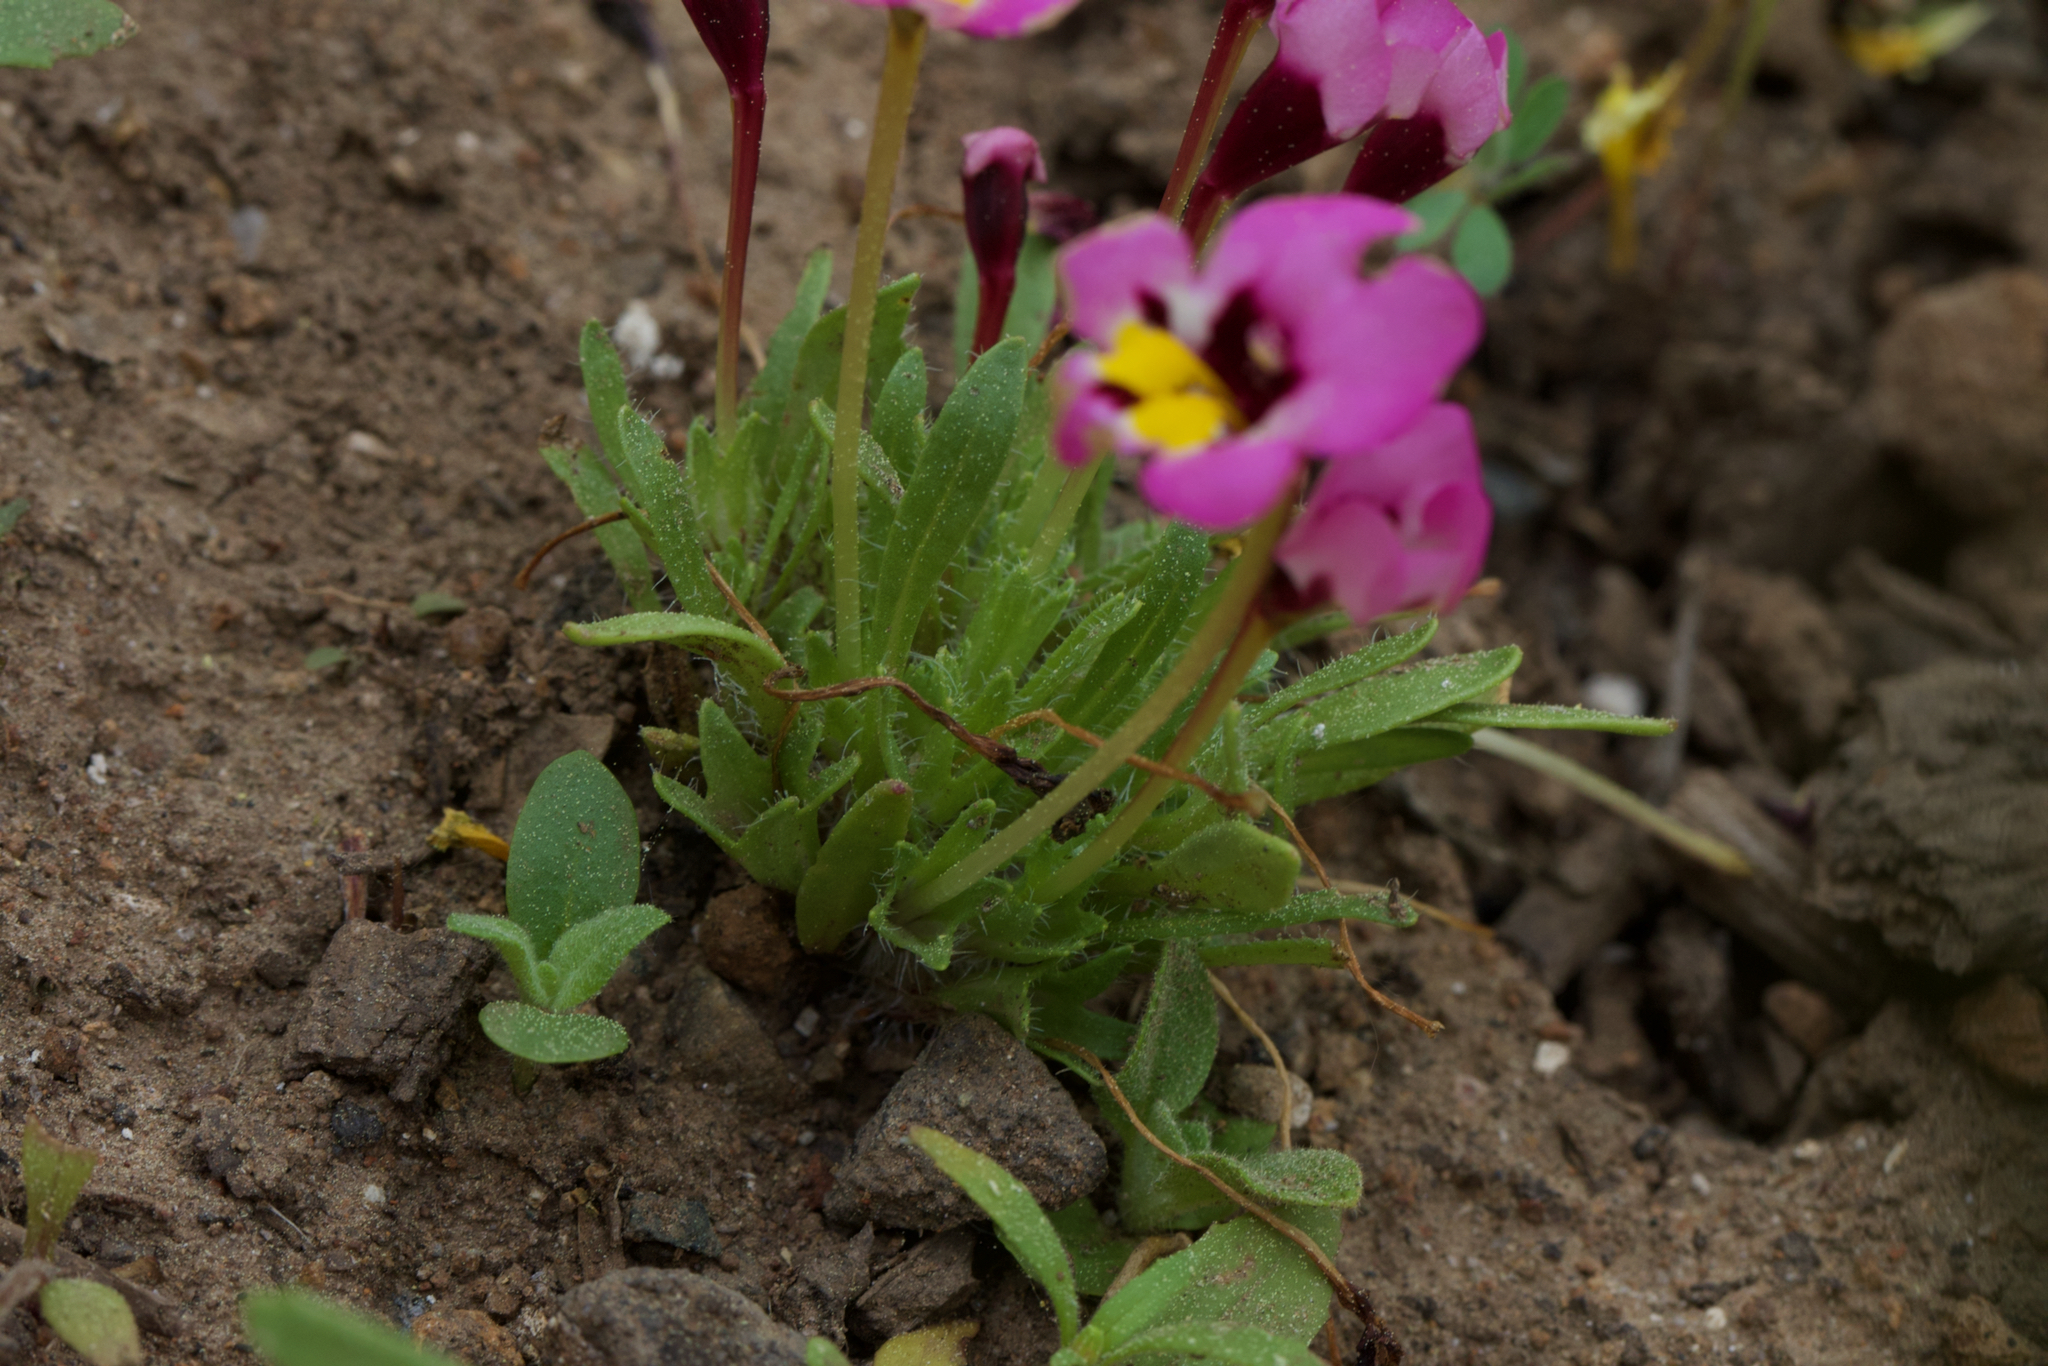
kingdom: Plantae
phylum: Tracheophyta
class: Magnoliopsida
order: Lamiales
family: Phrymaceae
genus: Diplacus
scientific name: Diplacus angustatus
